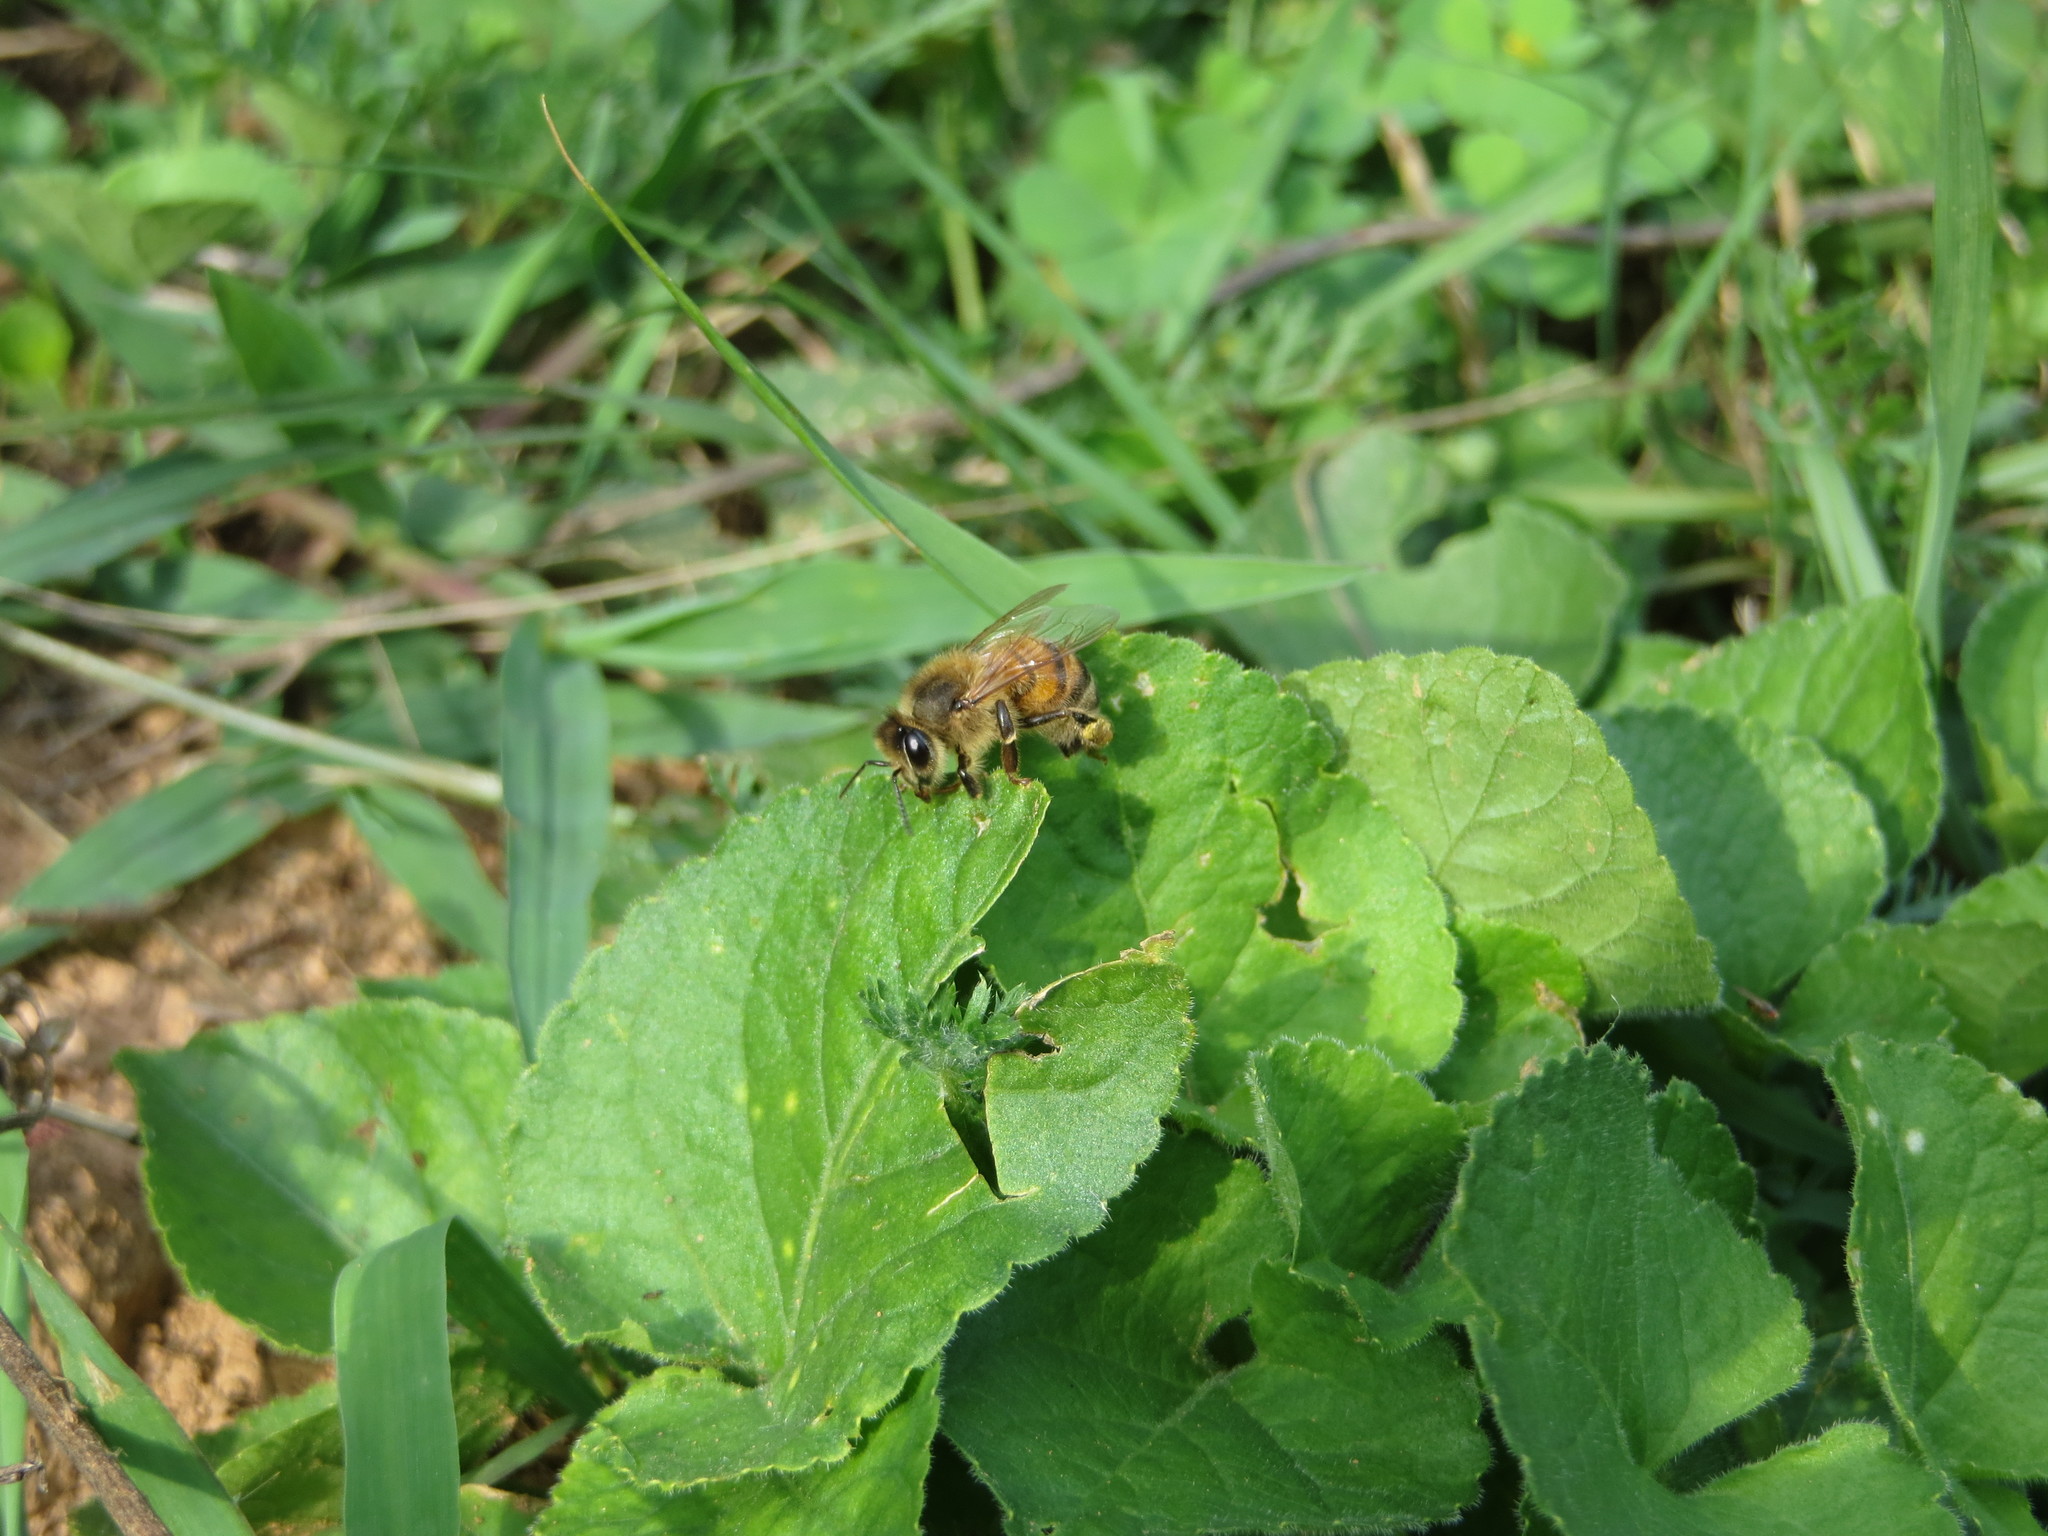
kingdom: Animalia
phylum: Arthropoda
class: Insecta
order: Hymenoptera
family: Apidae
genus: Apis
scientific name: Apis mellifera
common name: Honey bee
